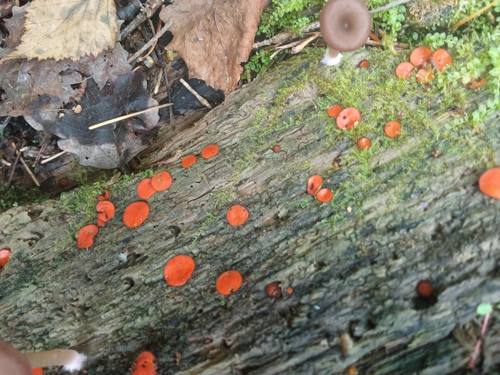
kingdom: Fungi
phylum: Ascomycota
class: Pezizomycetes
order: Pezizales
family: Pyronemataceae
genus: Scutellinia
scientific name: Scutellinia
